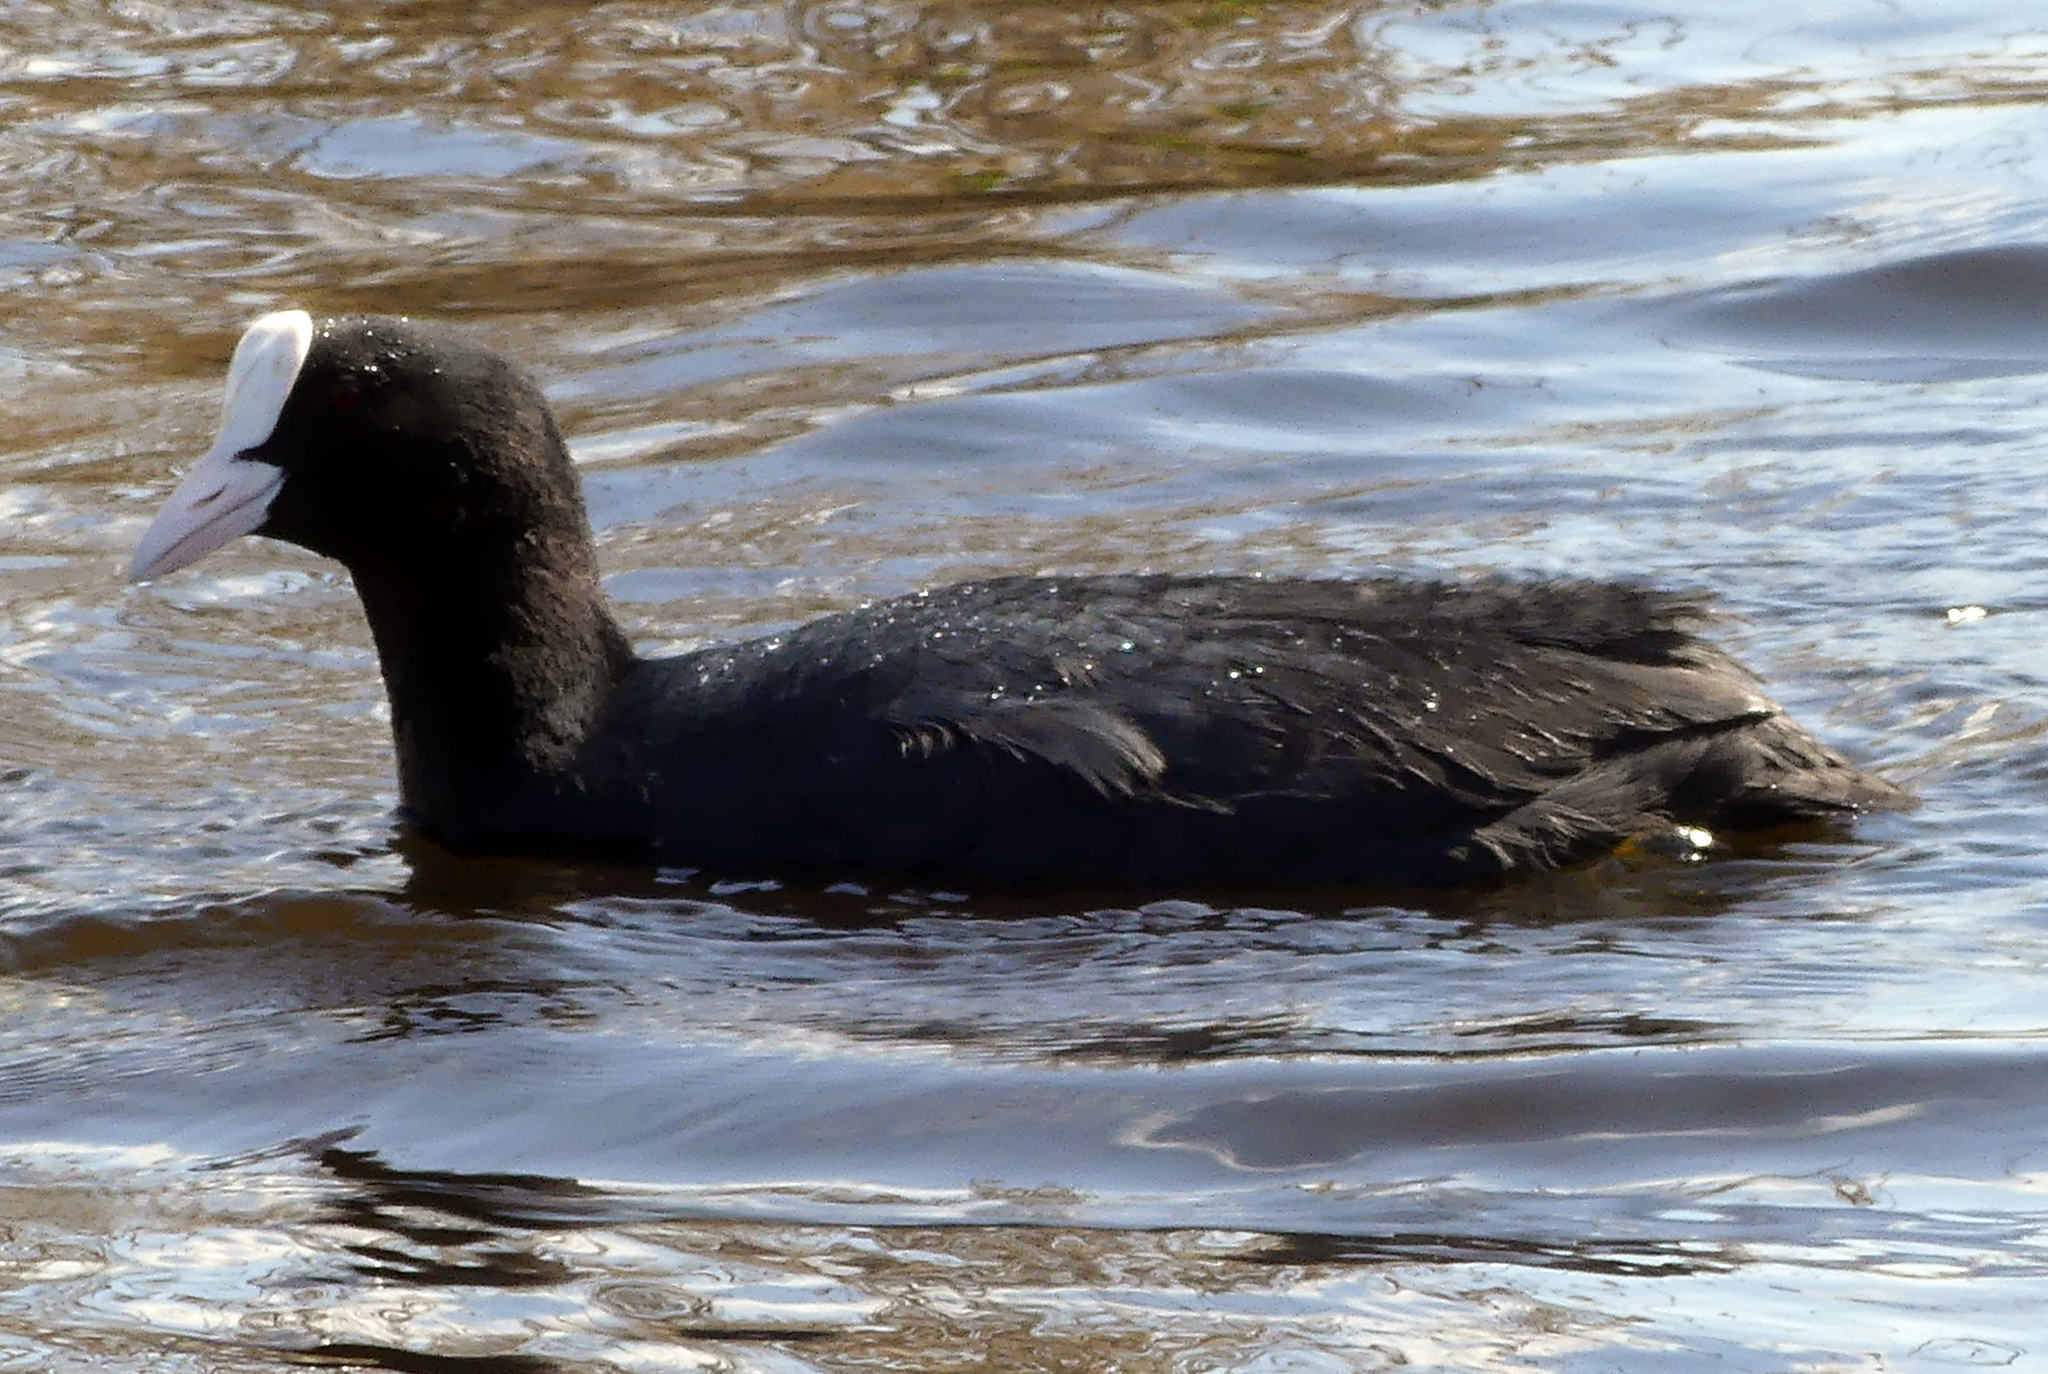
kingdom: Animalia
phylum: Chordata
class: Aves
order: Gruiformes
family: Rallidae
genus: Fulica
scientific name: Fulica atra
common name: Eurasian coot
